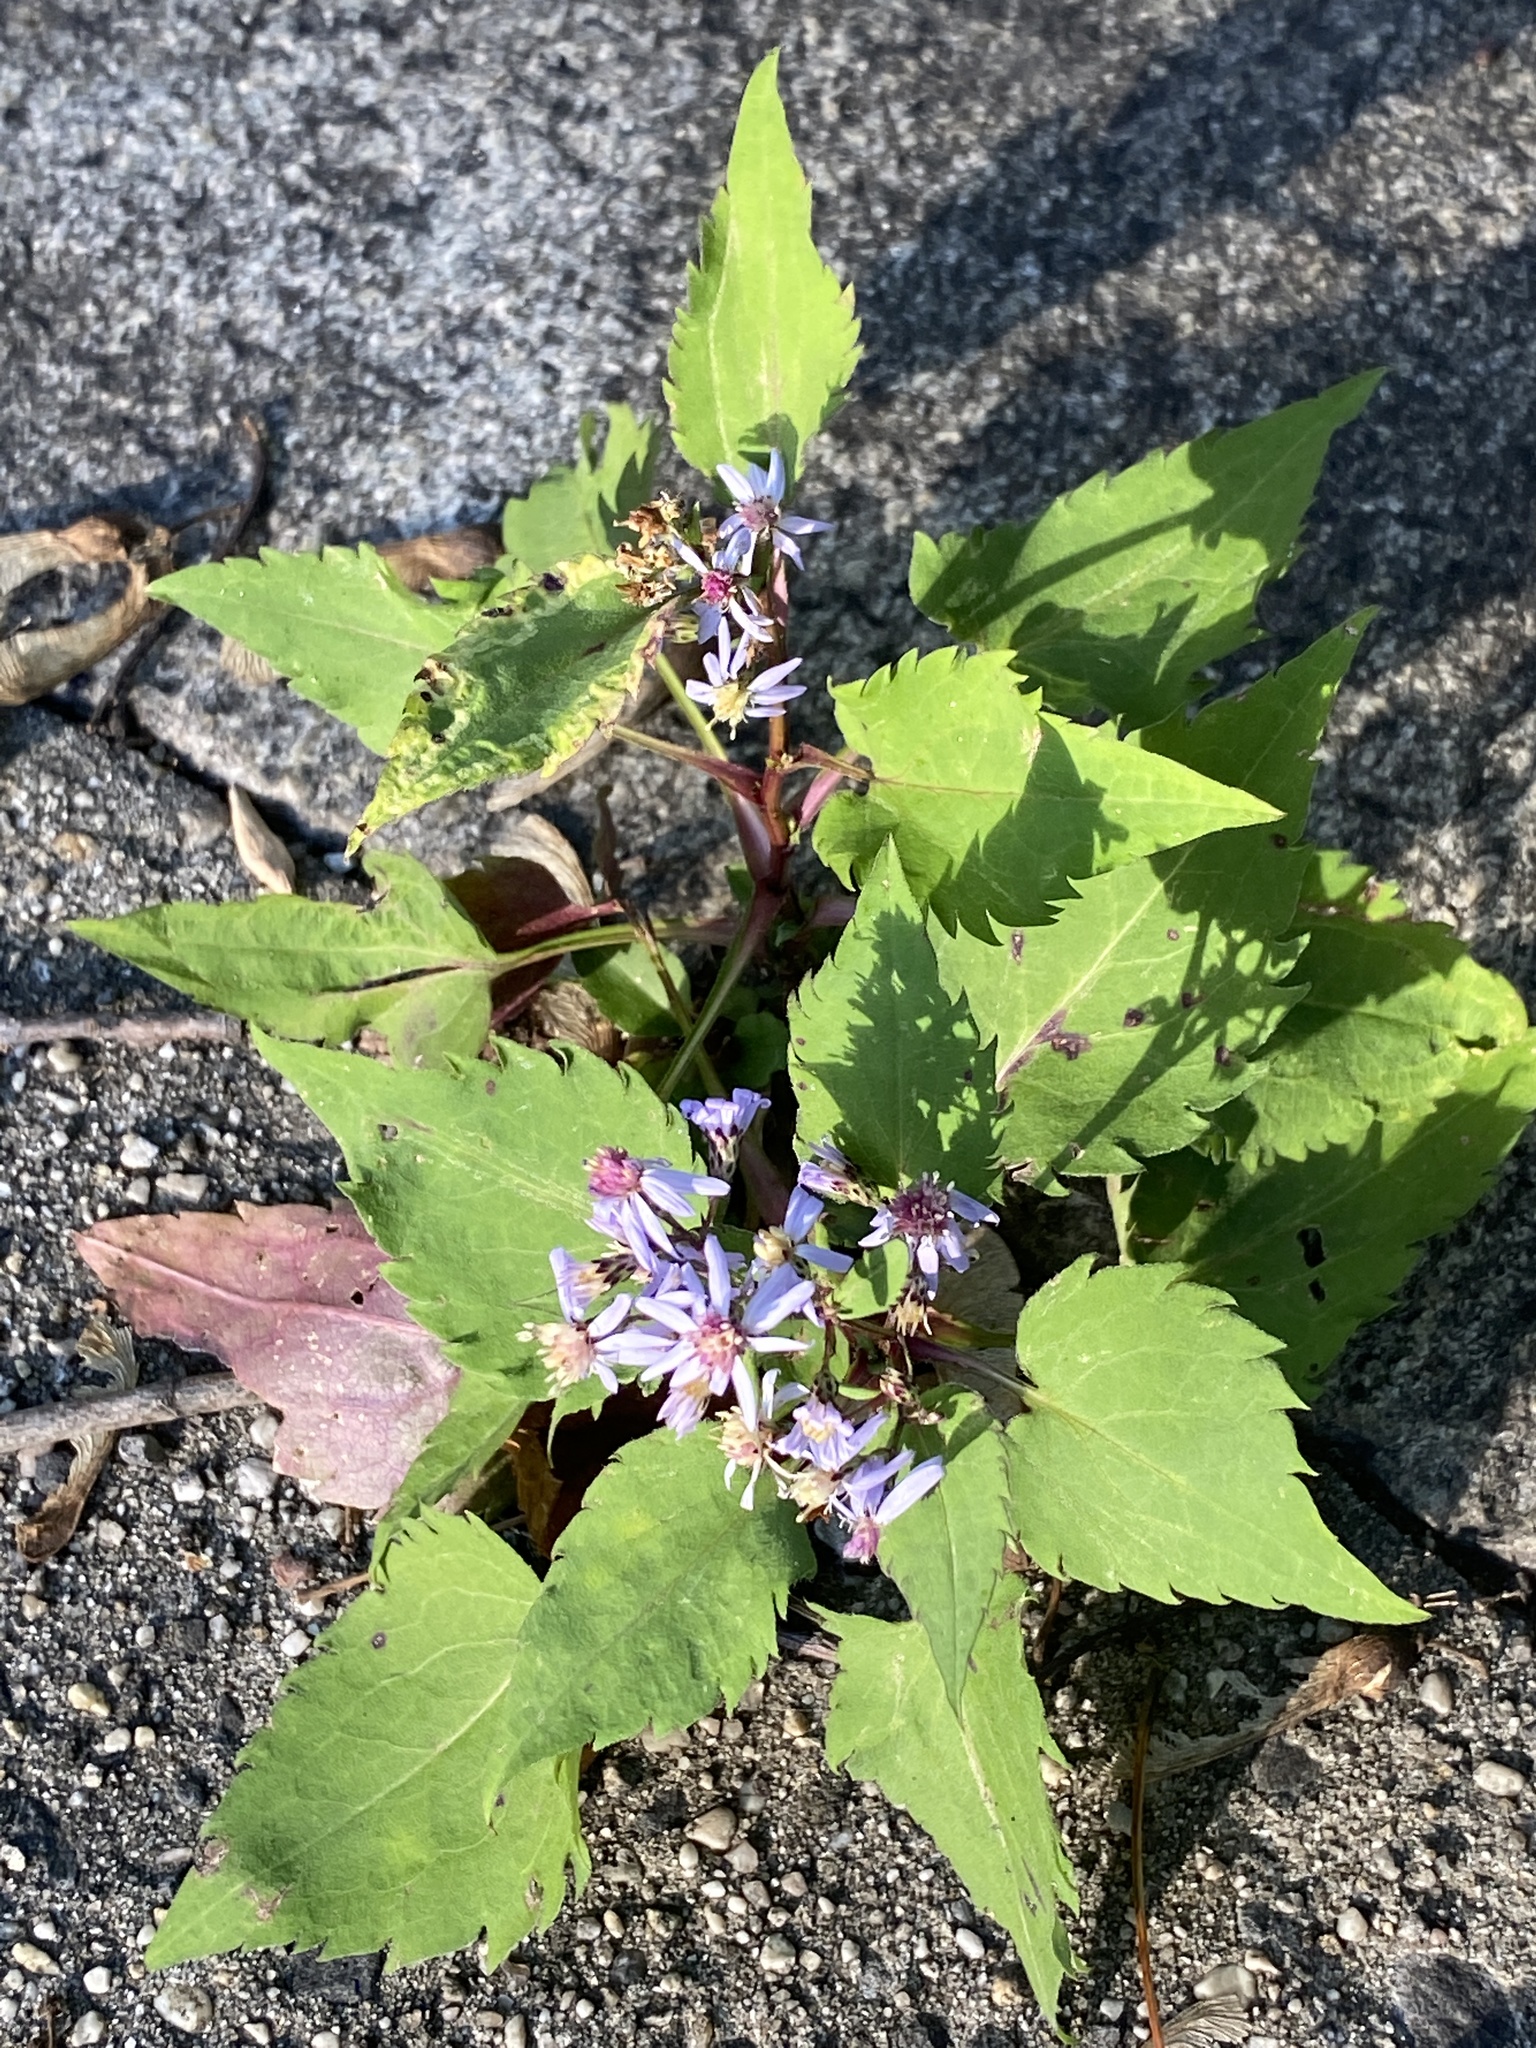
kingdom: Plantae
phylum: Tracheophyta
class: Magnoliopsida
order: Asterales
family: Asteraceae
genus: Symphyotrichum
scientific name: Symphyotrichum cordifolium
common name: Beeweed
